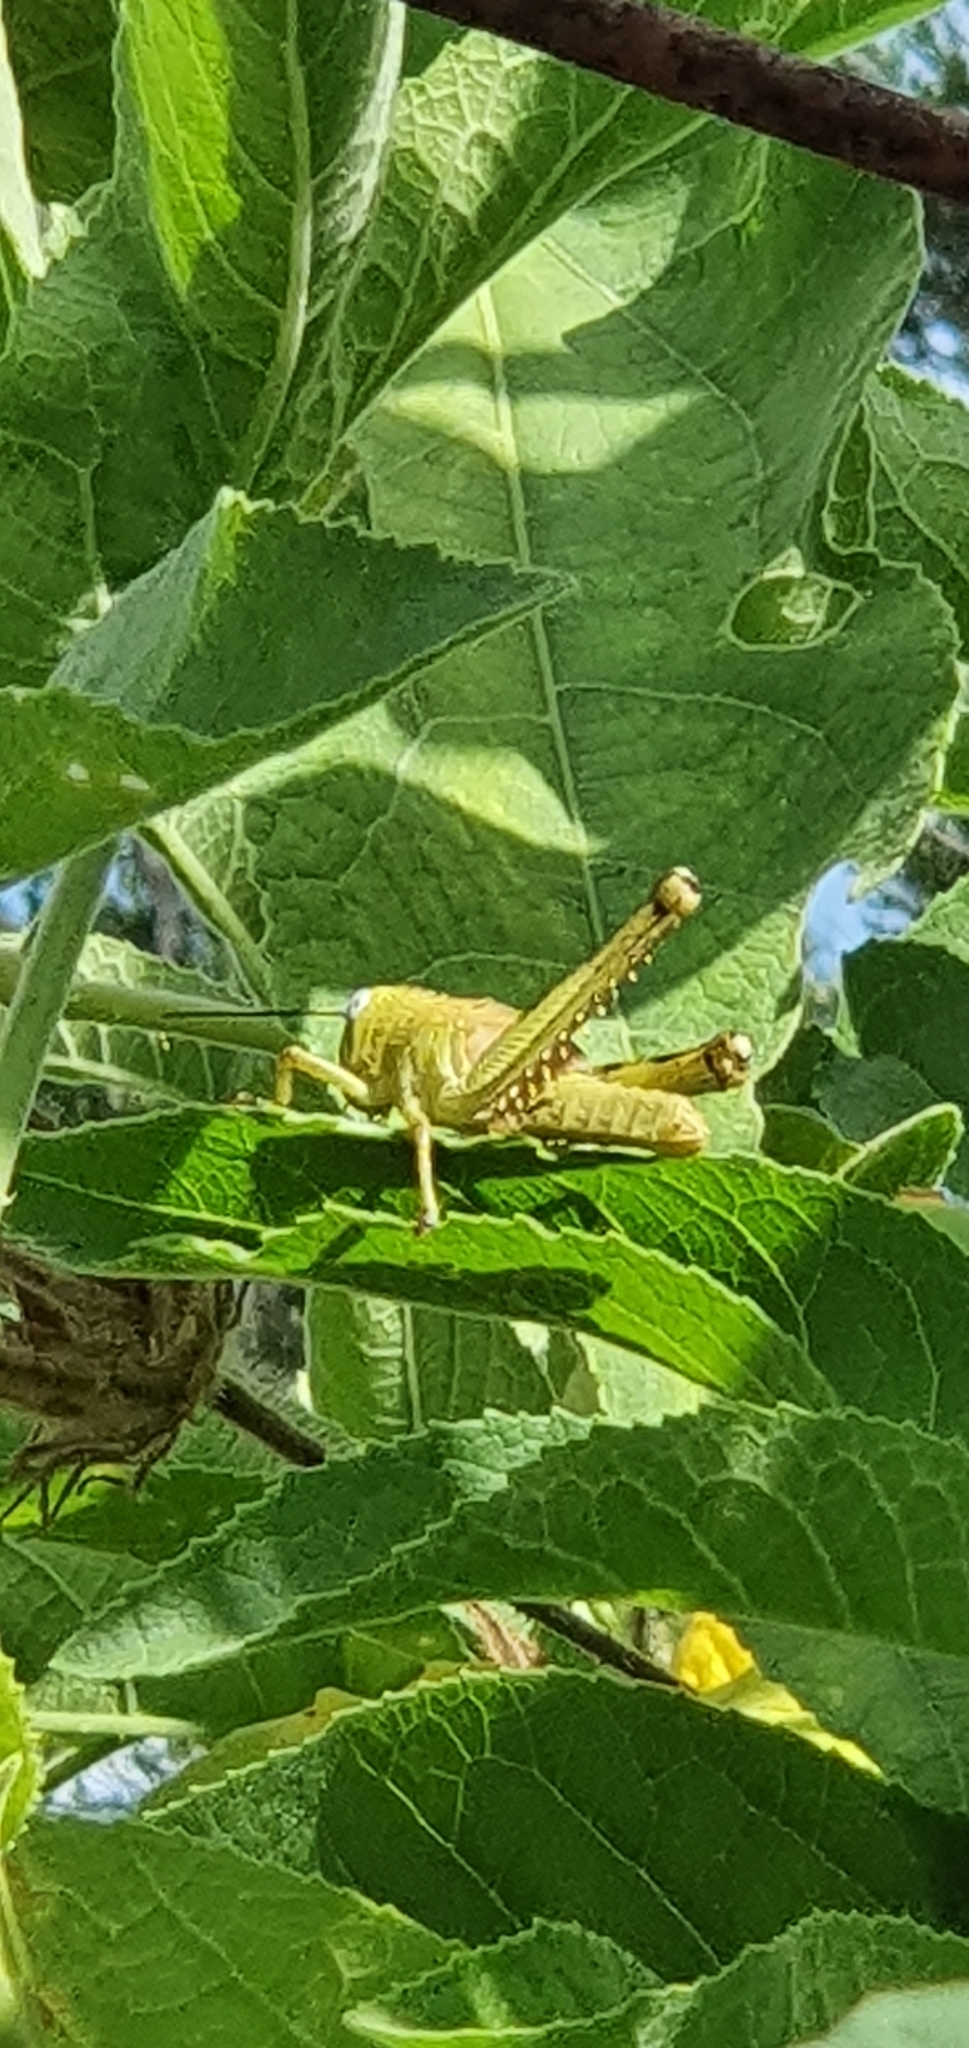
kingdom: Animalia
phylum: Arthropoda
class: Insecta
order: Orthoptera
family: Acrididae
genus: Valanga
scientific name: Valanga irregularis
